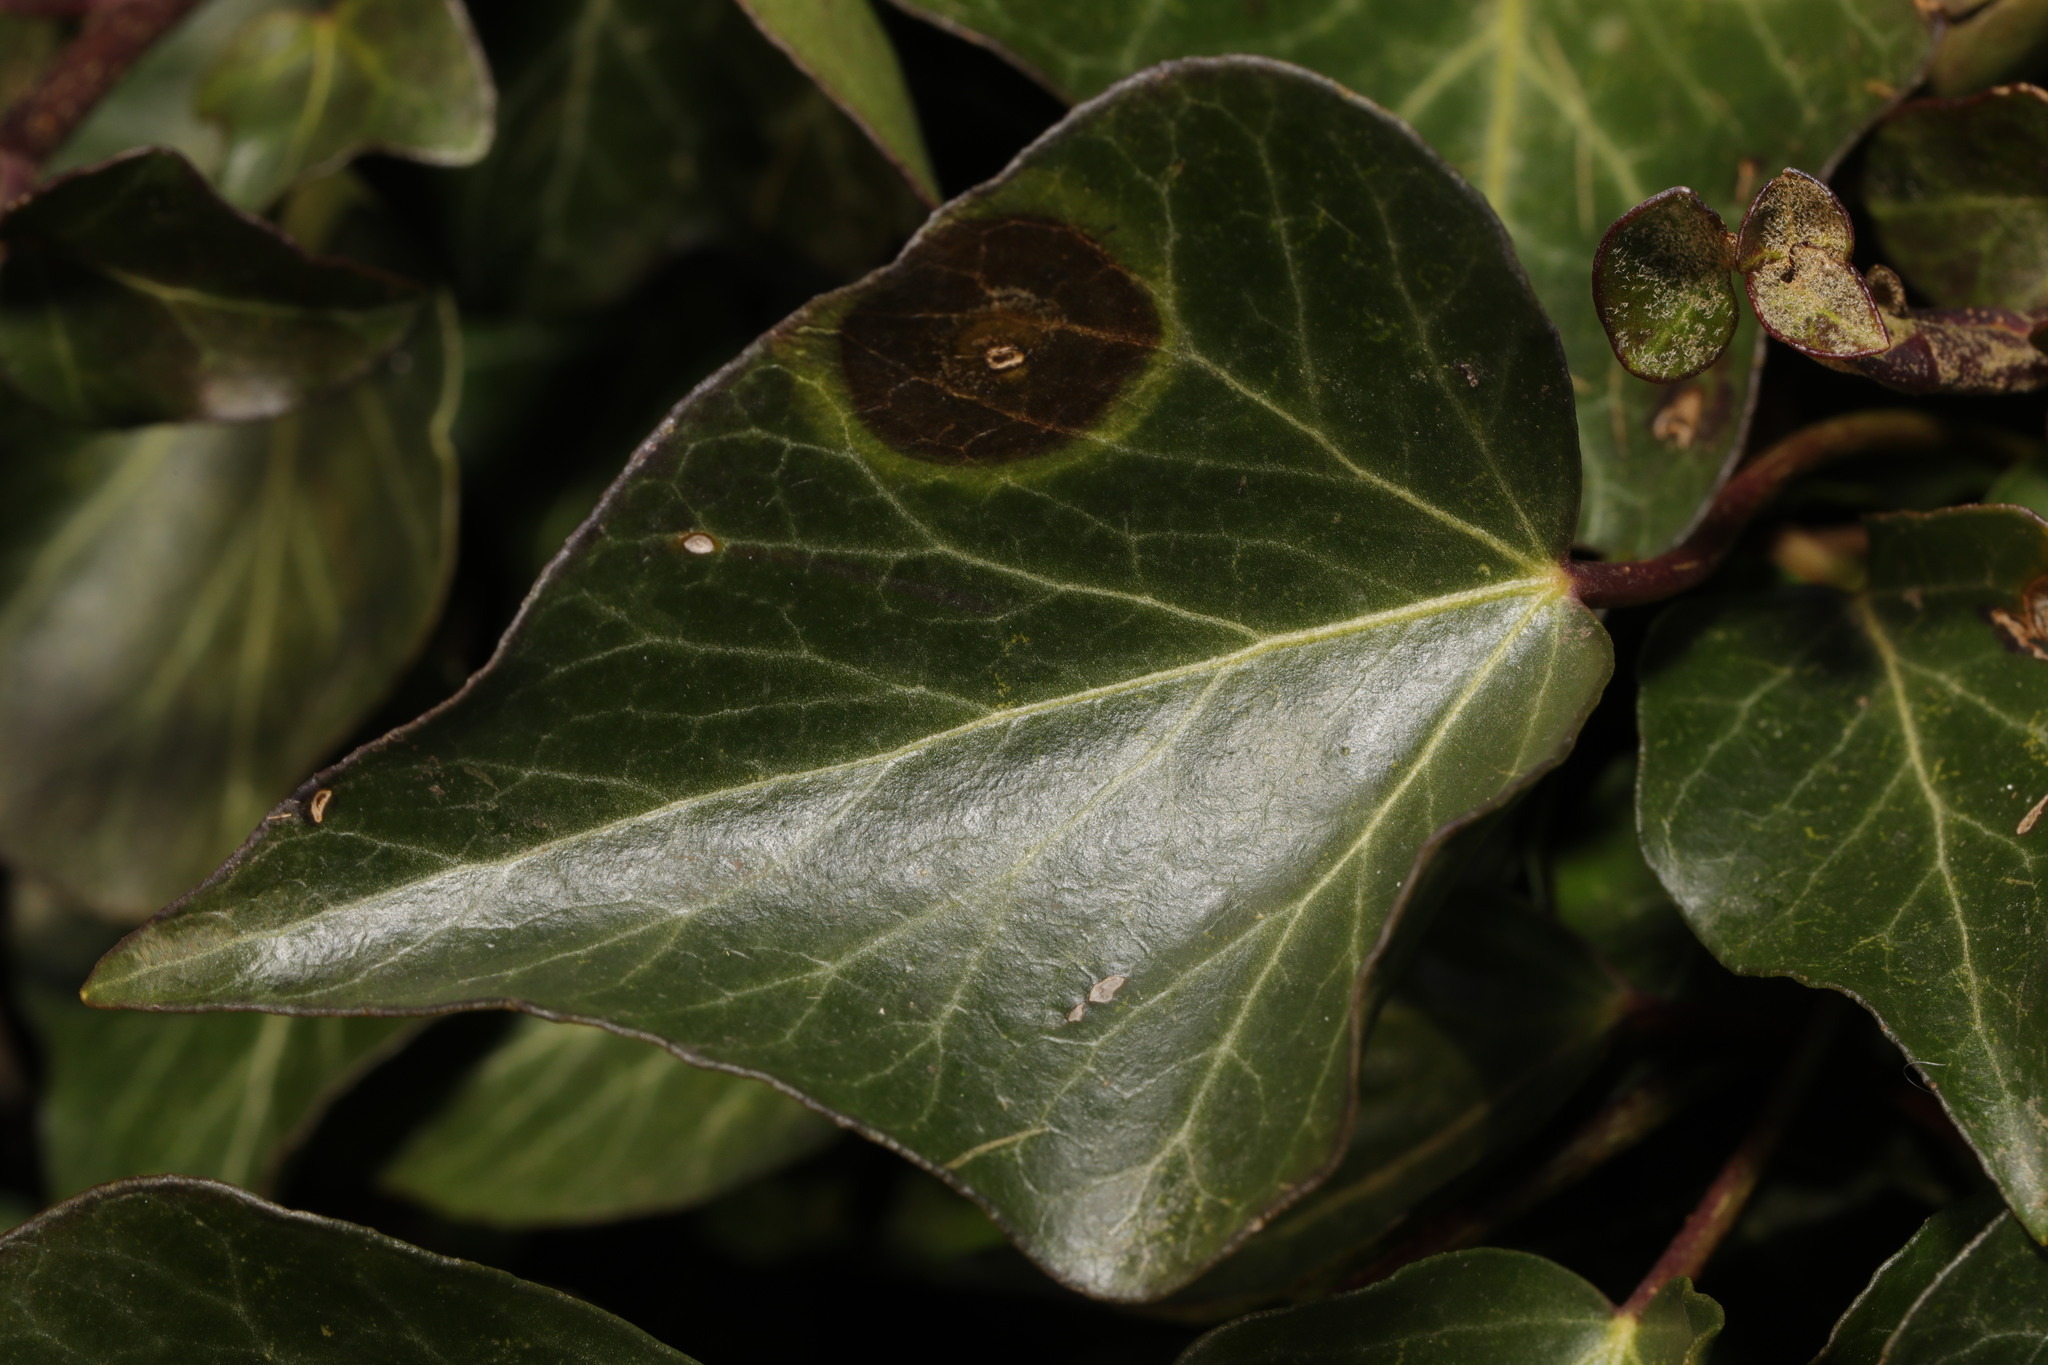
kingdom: Fungi
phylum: Ascomycota
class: Dothideomycetes
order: Pleosporales
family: Didymellaceae
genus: Boeremia
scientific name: Boeremia hedericola
